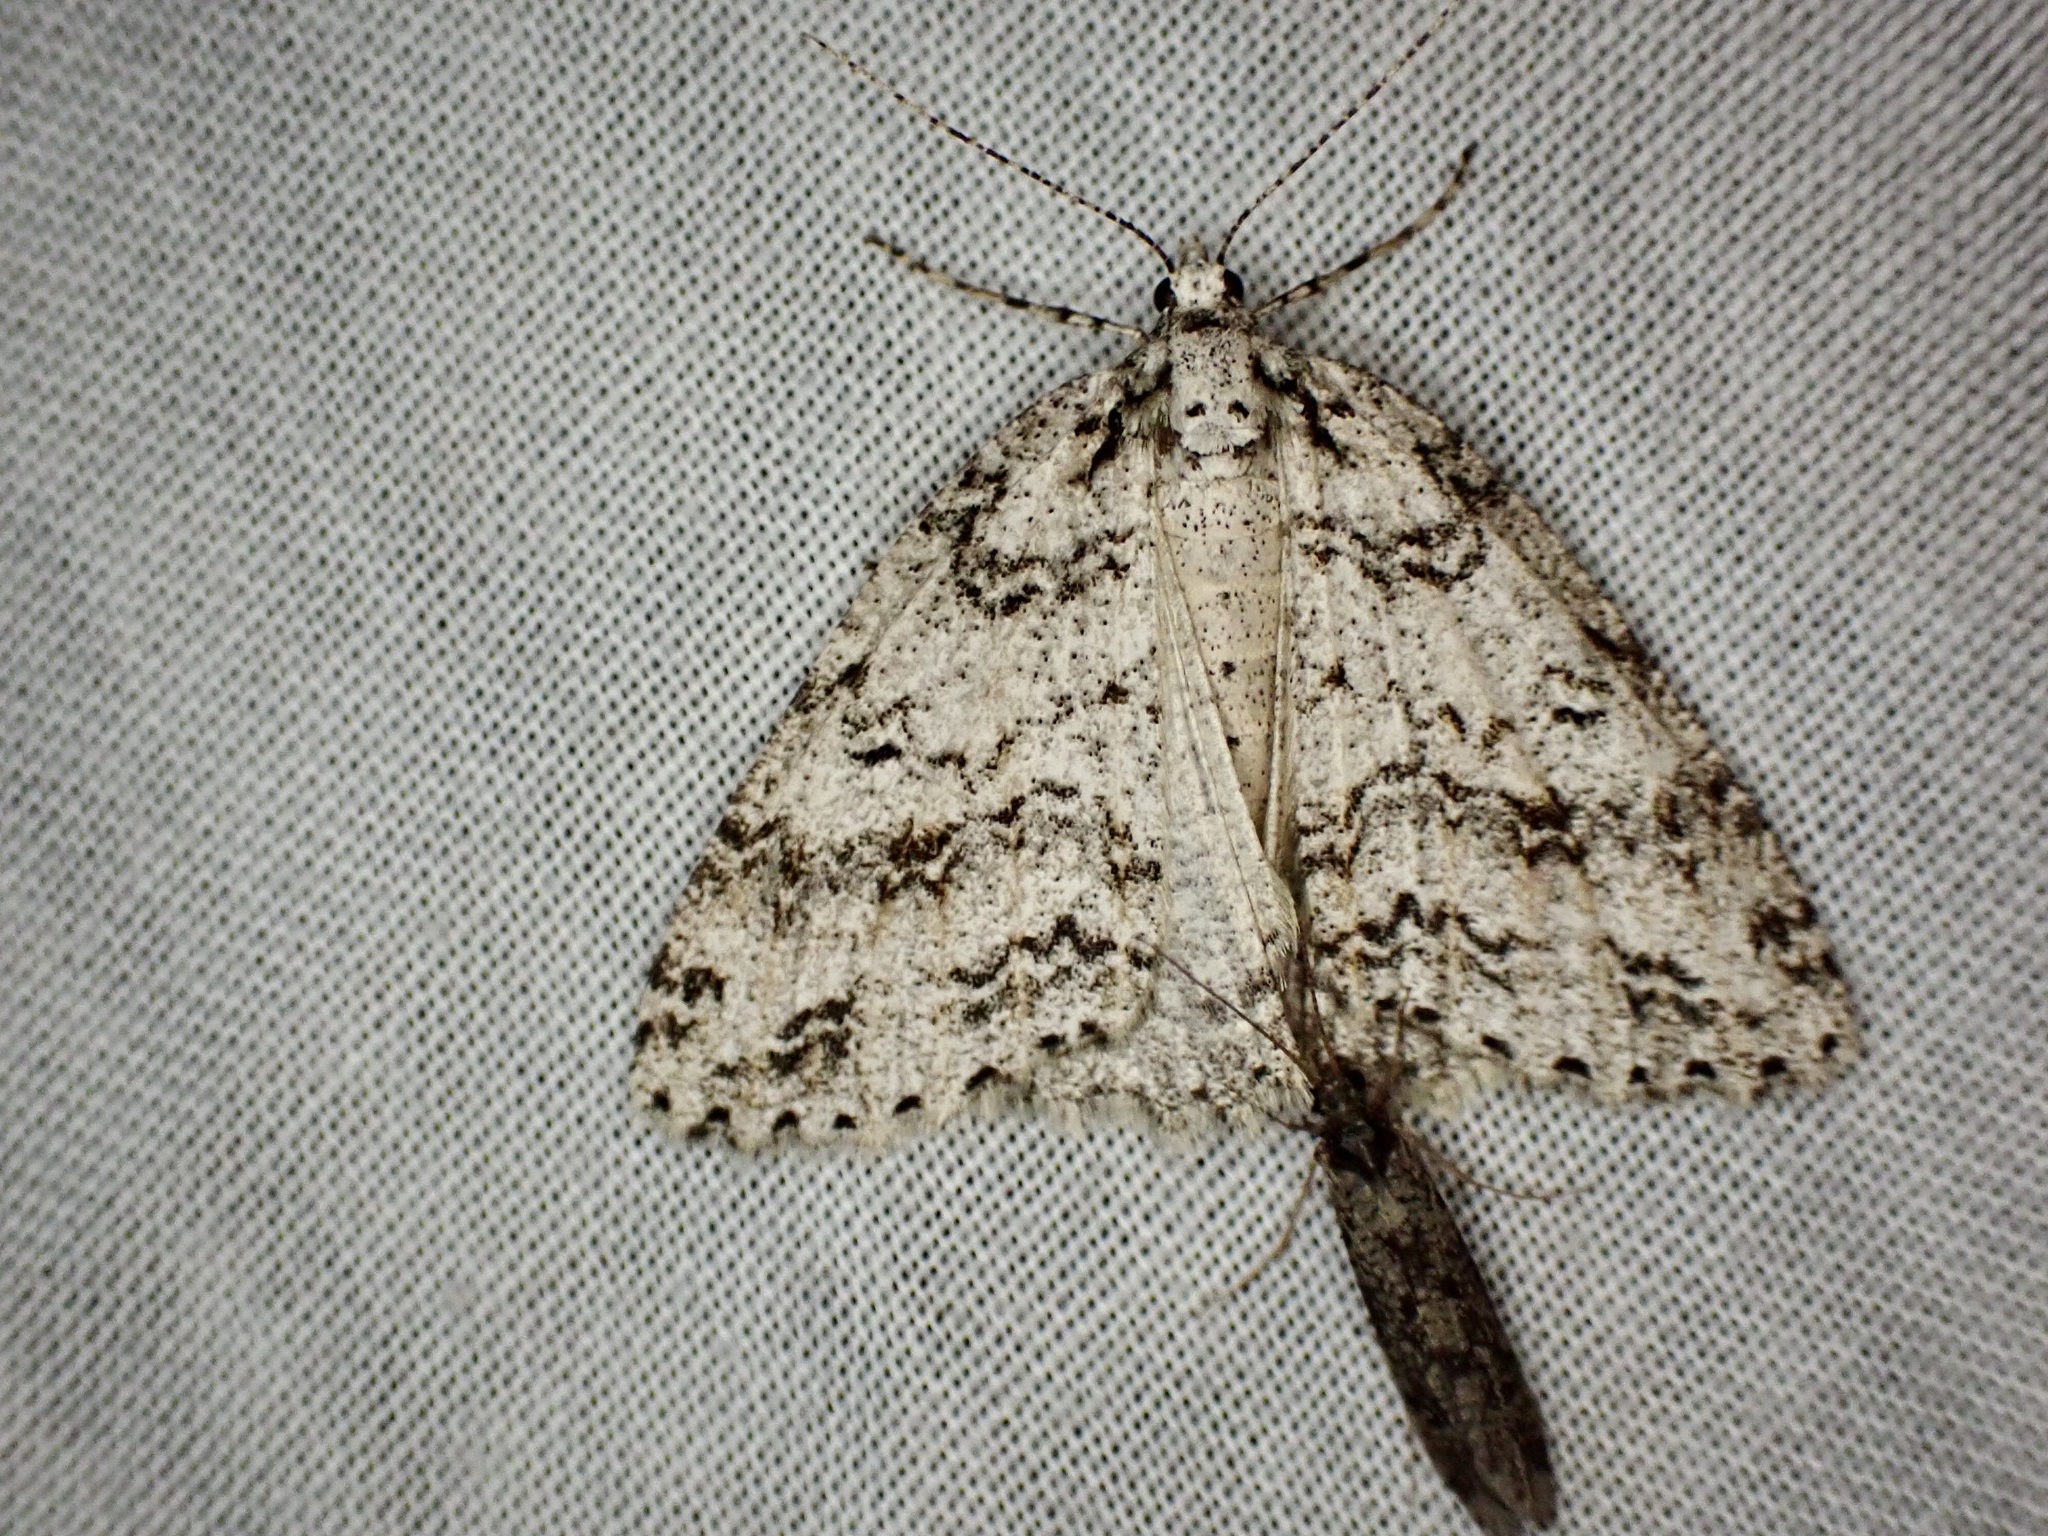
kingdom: Animalia
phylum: Arthropoda
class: Insecta
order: Lepidoptera
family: Geometridae
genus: Pseudocoremia
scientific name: Pseudocoremia rudisata
